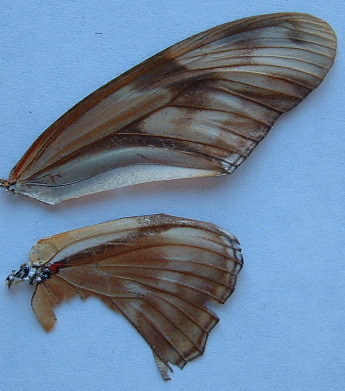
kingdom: Animalia
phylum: Arthropoda
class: Insecta
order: Lepidoptera
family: Nymphalidae
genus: Dryas
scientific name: Dryas iulia
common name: Flambeau
